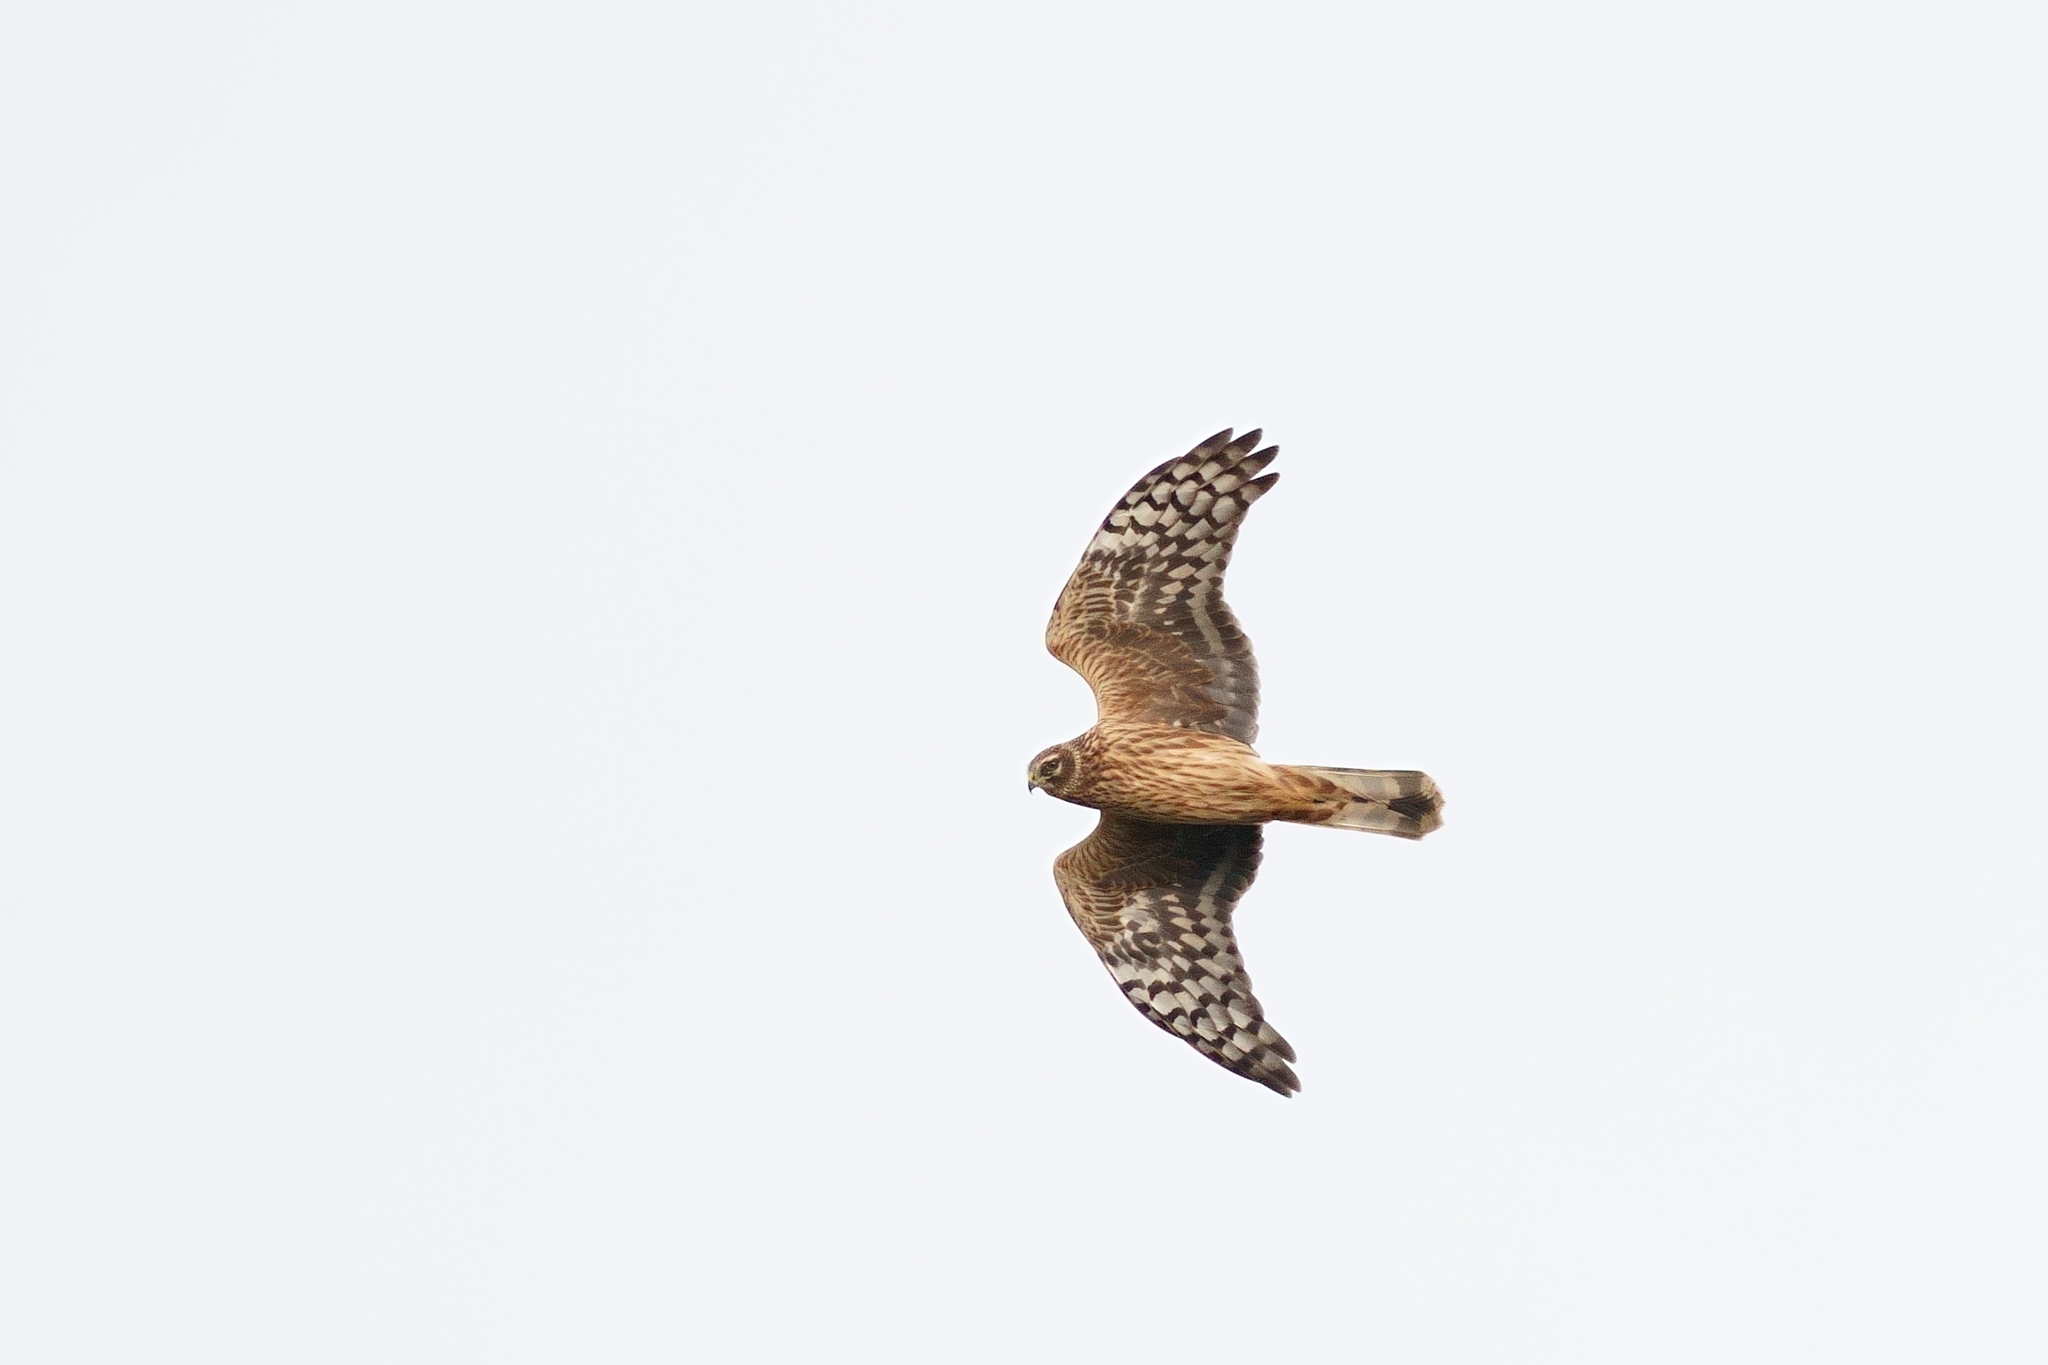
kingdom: Animalia
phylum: Chordata
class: Aves
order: Accipitriformes
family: Accipitridae
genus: Circus
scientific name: Circus cyaneus
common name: Hen harrier
